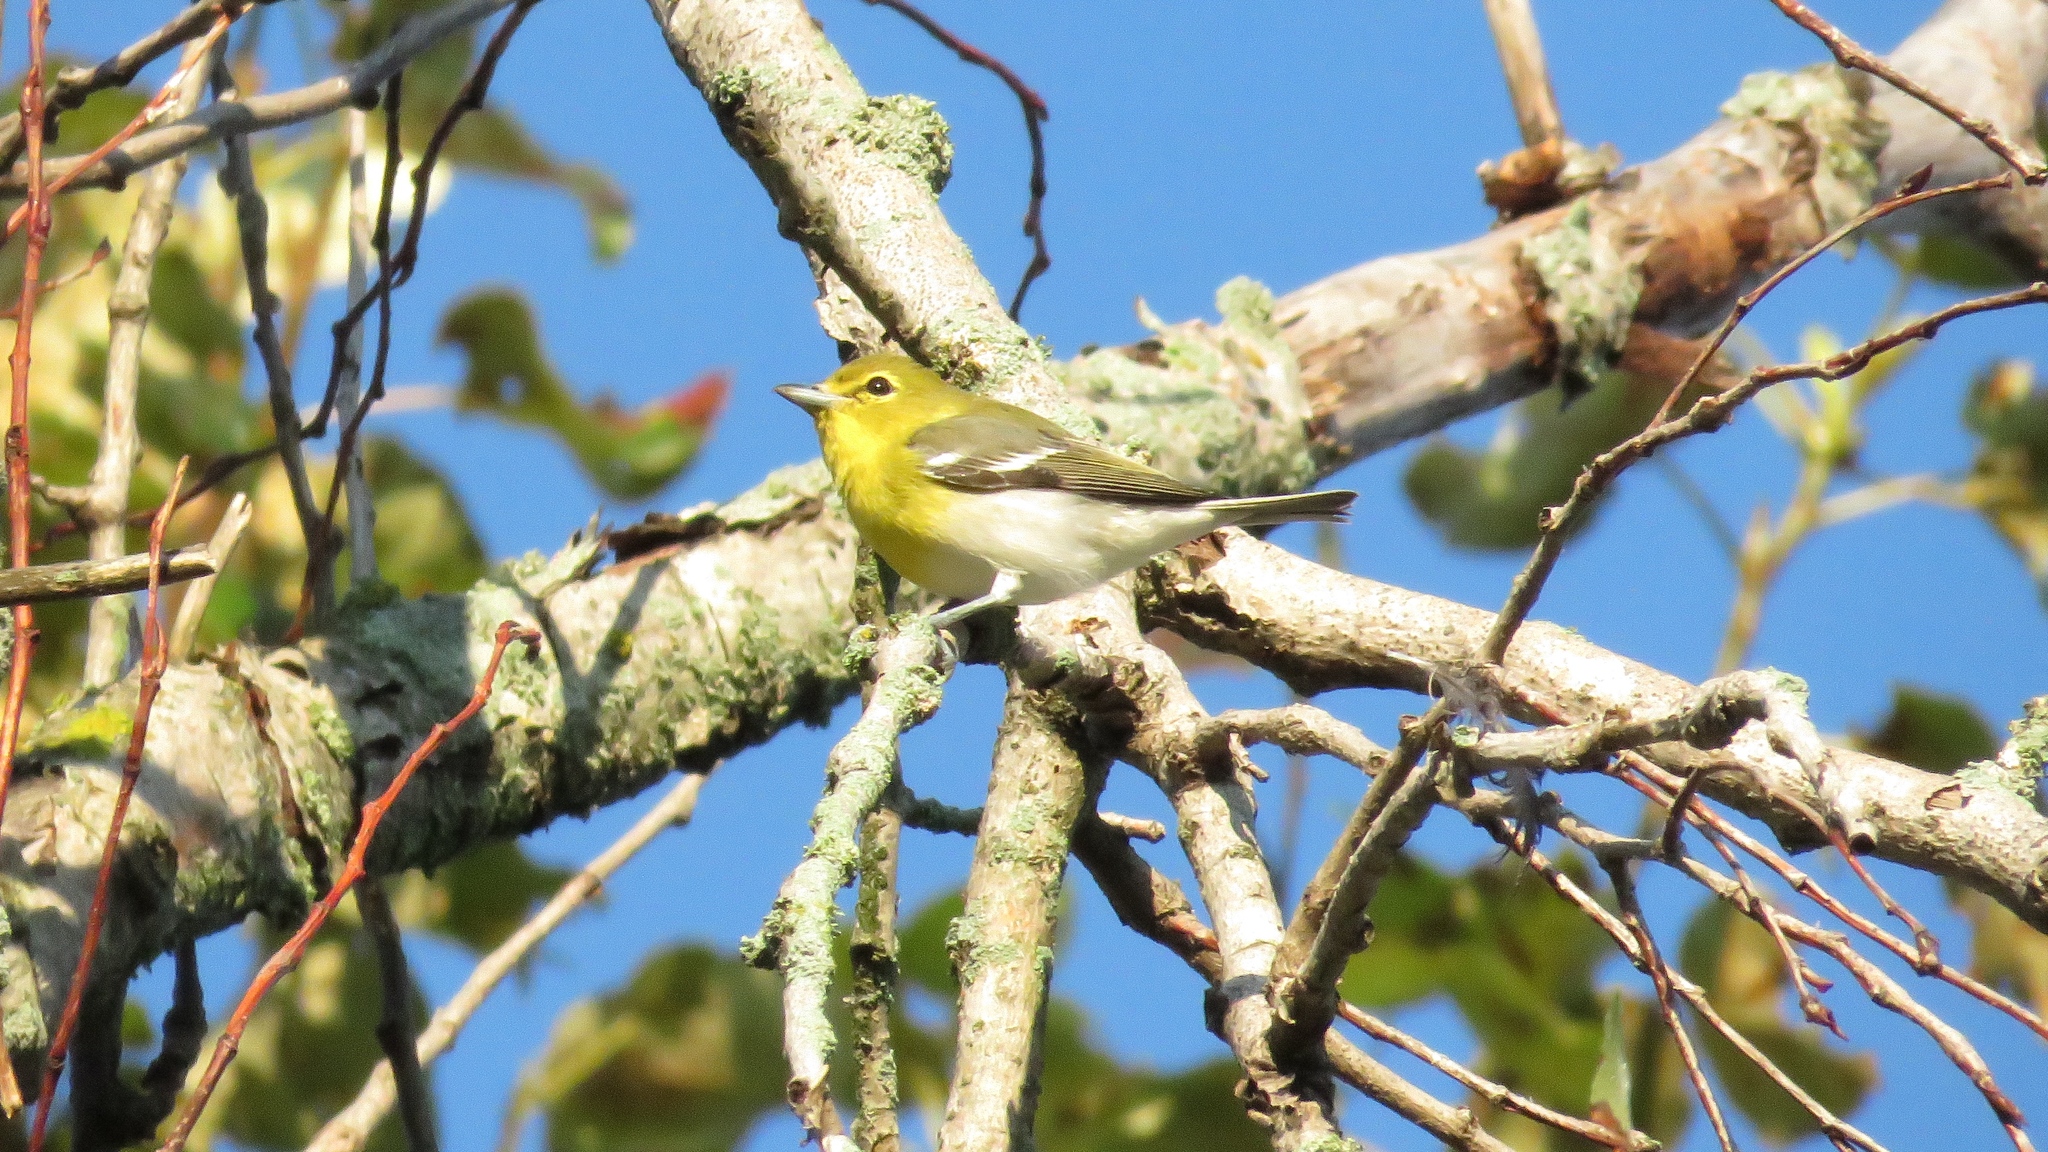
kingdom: Animalia
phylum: Chordata
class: Aves
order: Passeriformes
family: Vireonidae
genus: Vireo
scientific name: Vireo flavifrons
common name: Yellow-throated vireo
